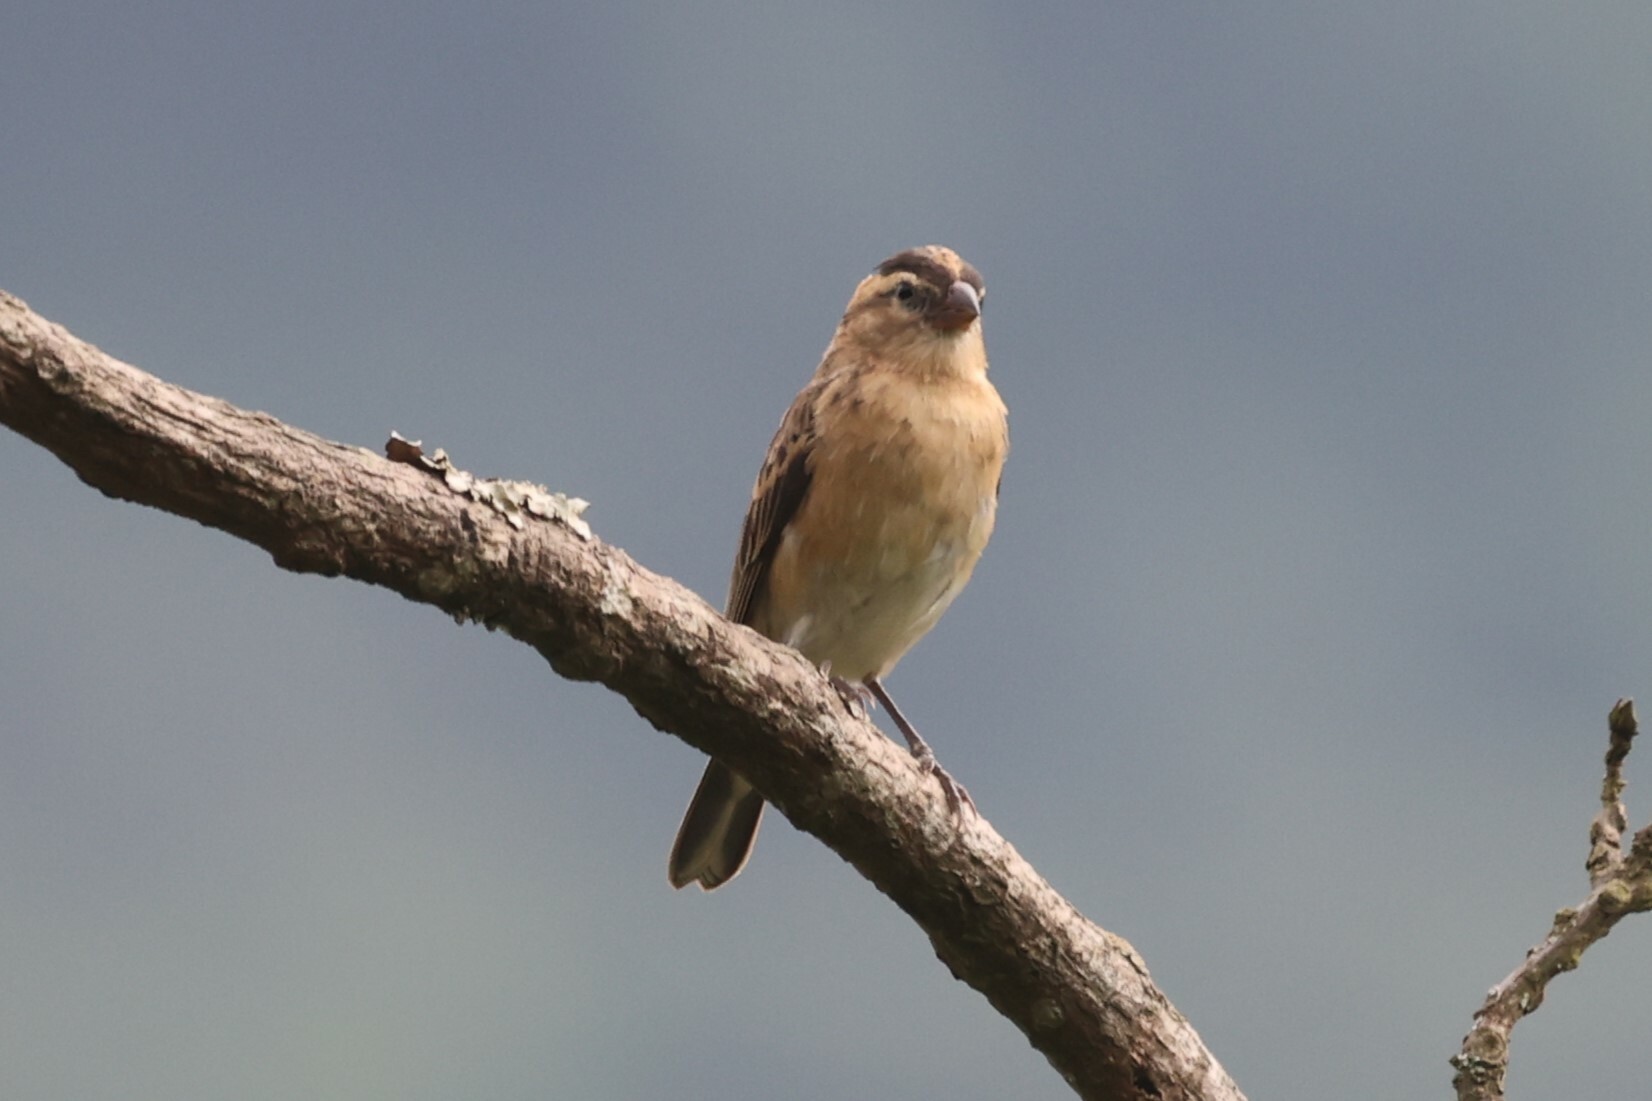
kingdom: Animalia
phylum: Chordata
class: Aves
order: Passeriformes
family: Viduidae
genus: Vidua
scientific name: Vidua macroura
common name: Pin-tailed whydah
